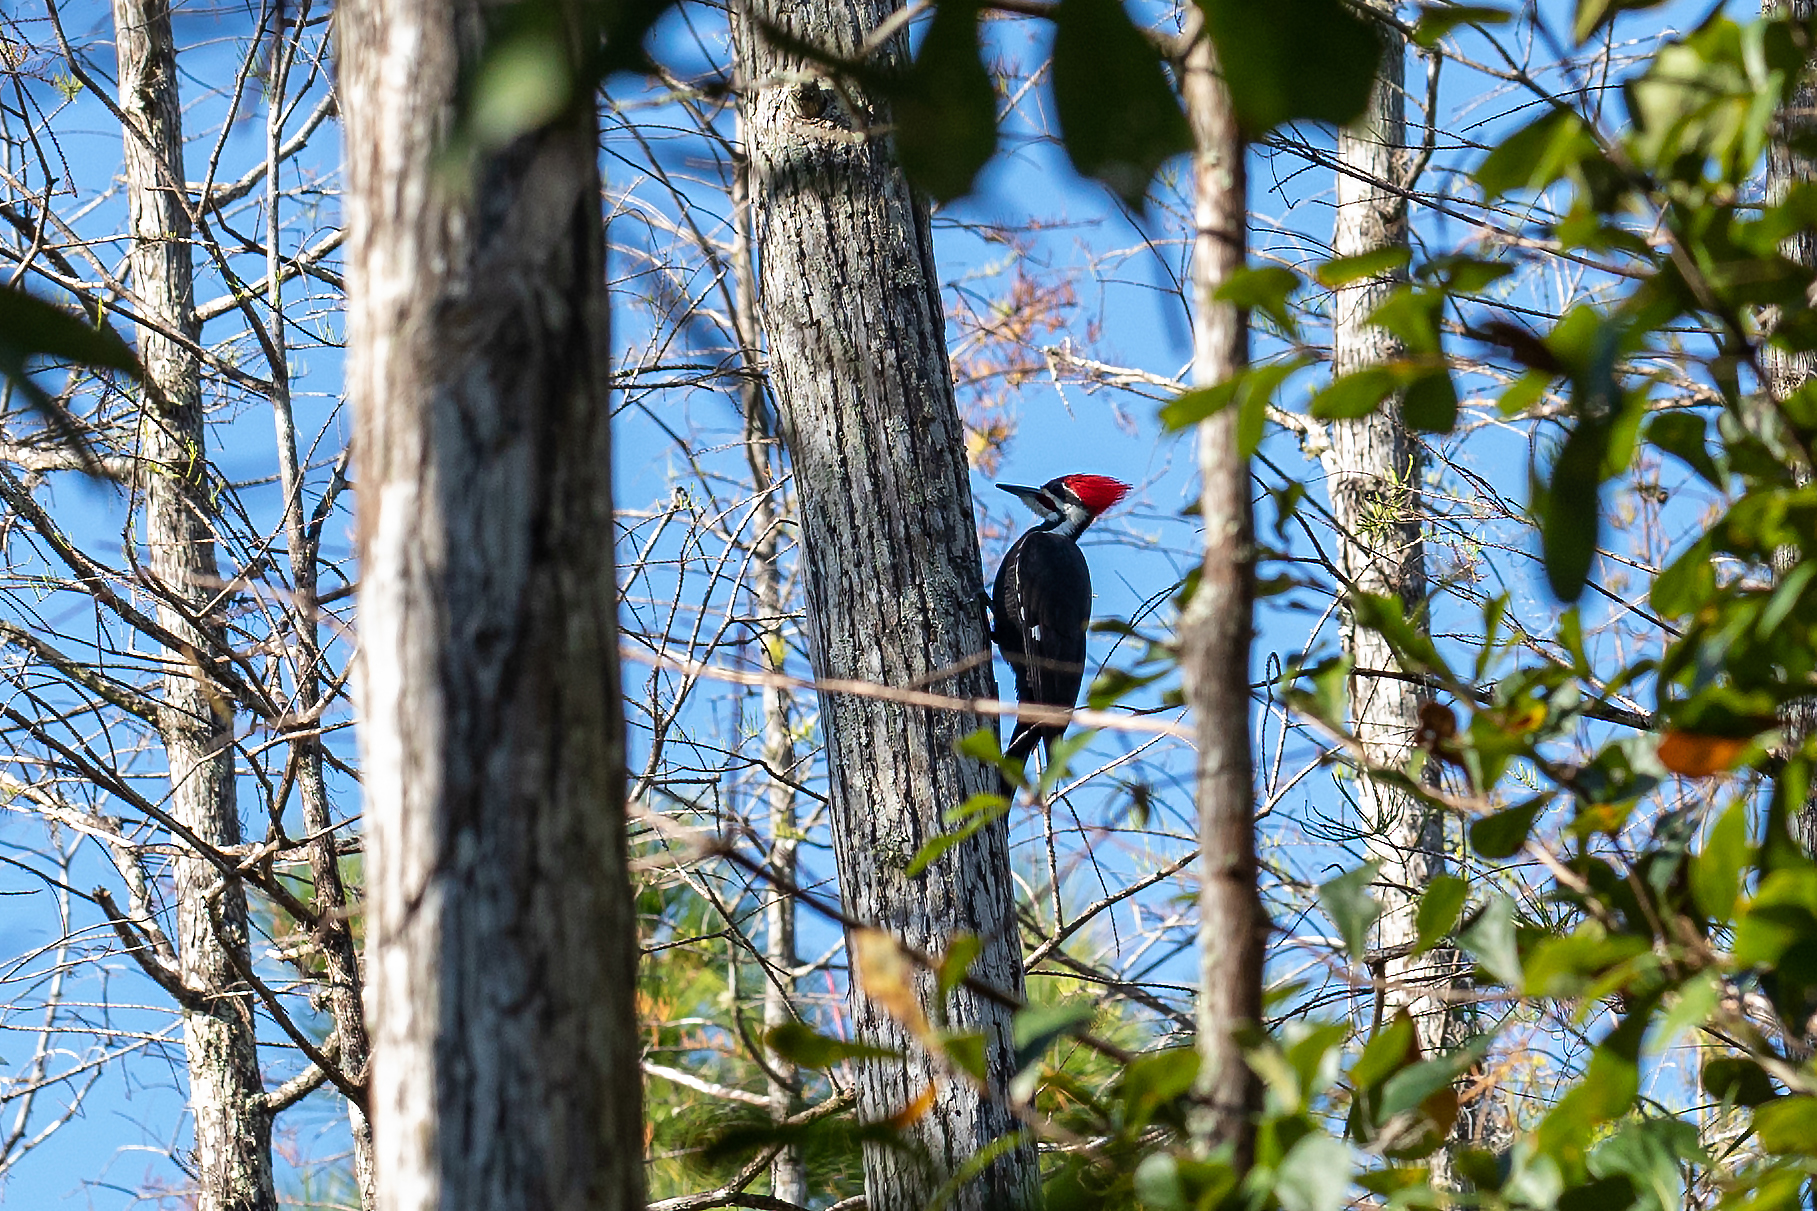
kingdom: Animalia
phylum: Chordata
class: Aves
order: Piciformes
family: Picidae
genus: Dryocopus
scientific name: Dryocopus pileatus
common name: Pileated woodpecker
